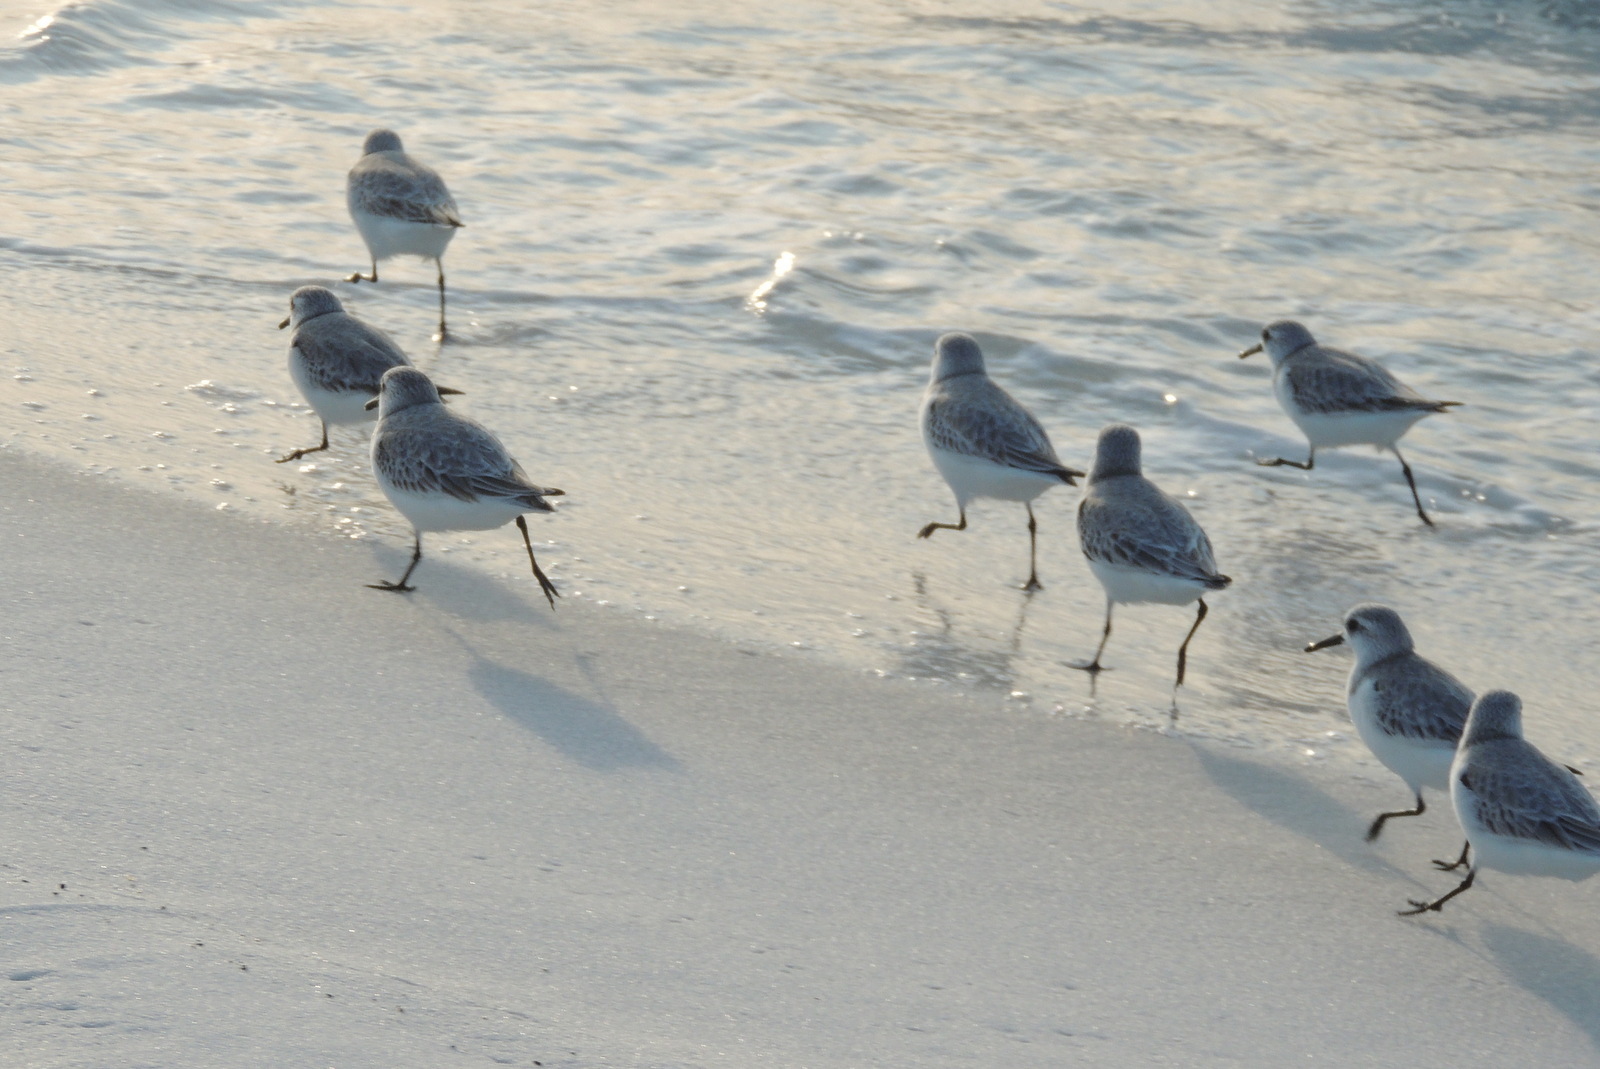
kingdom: Animalia
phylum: Chordata
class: Aves
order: Charadriiformes
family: Scolopacidae
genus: Calidris
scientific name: Calidris alba
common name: Sanderling
